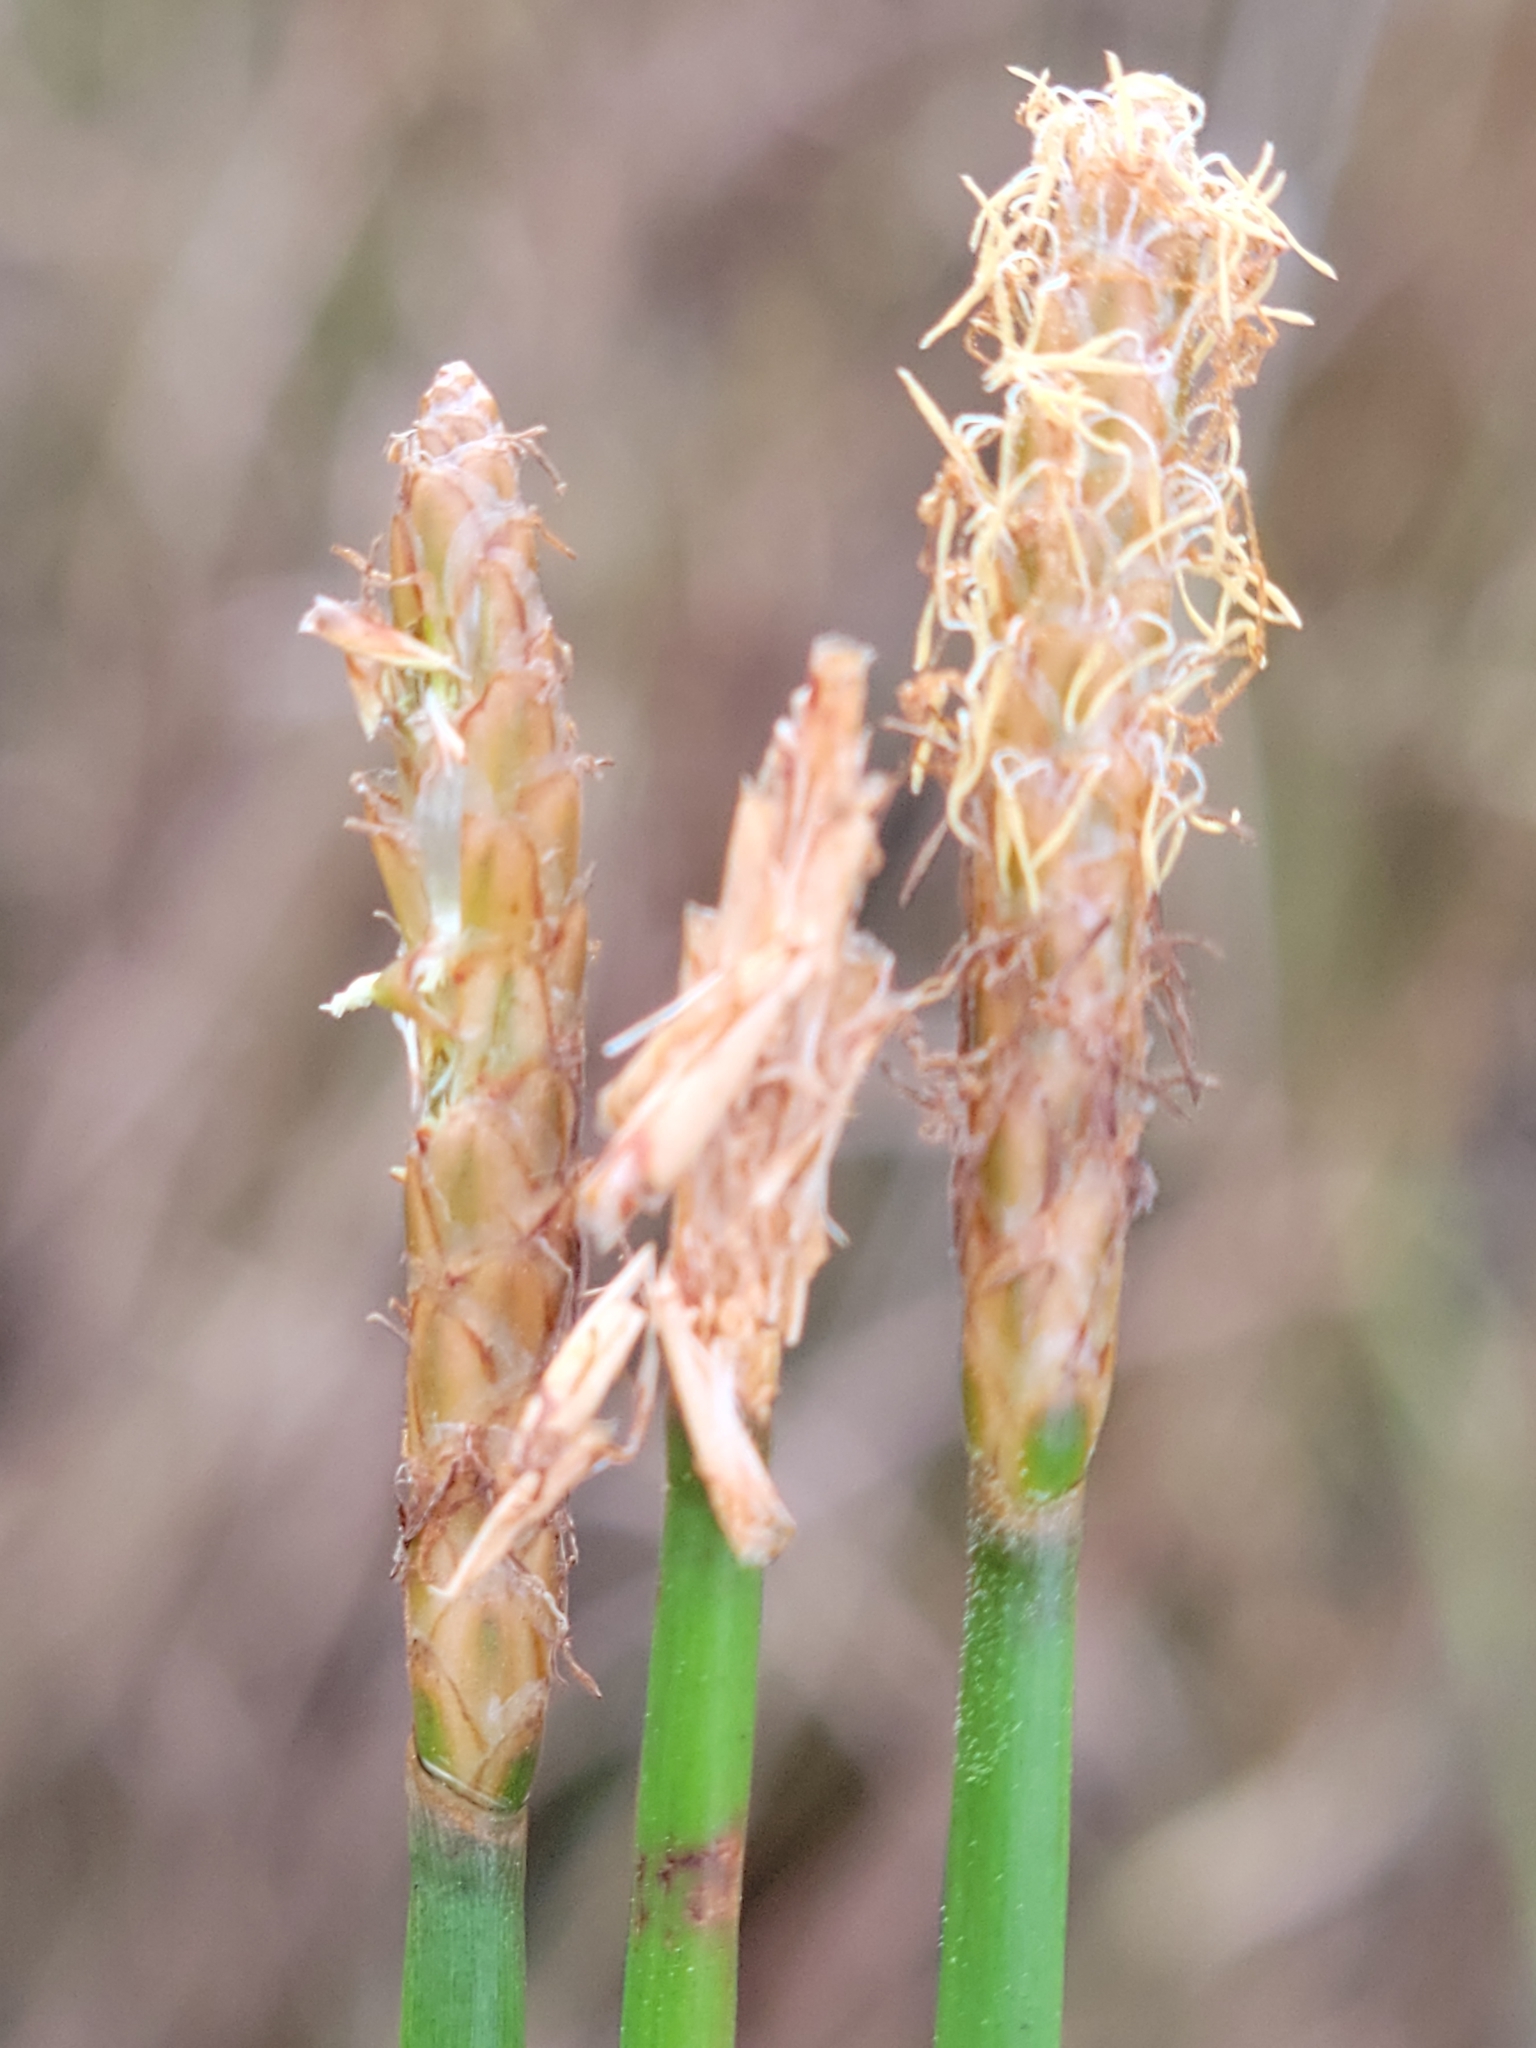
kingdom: Plantae
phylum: Tracheophyta
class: Liliopsida
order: Poales
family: Cyperaceae
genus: Eleocharis
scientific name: Eleocharis cellulosa
